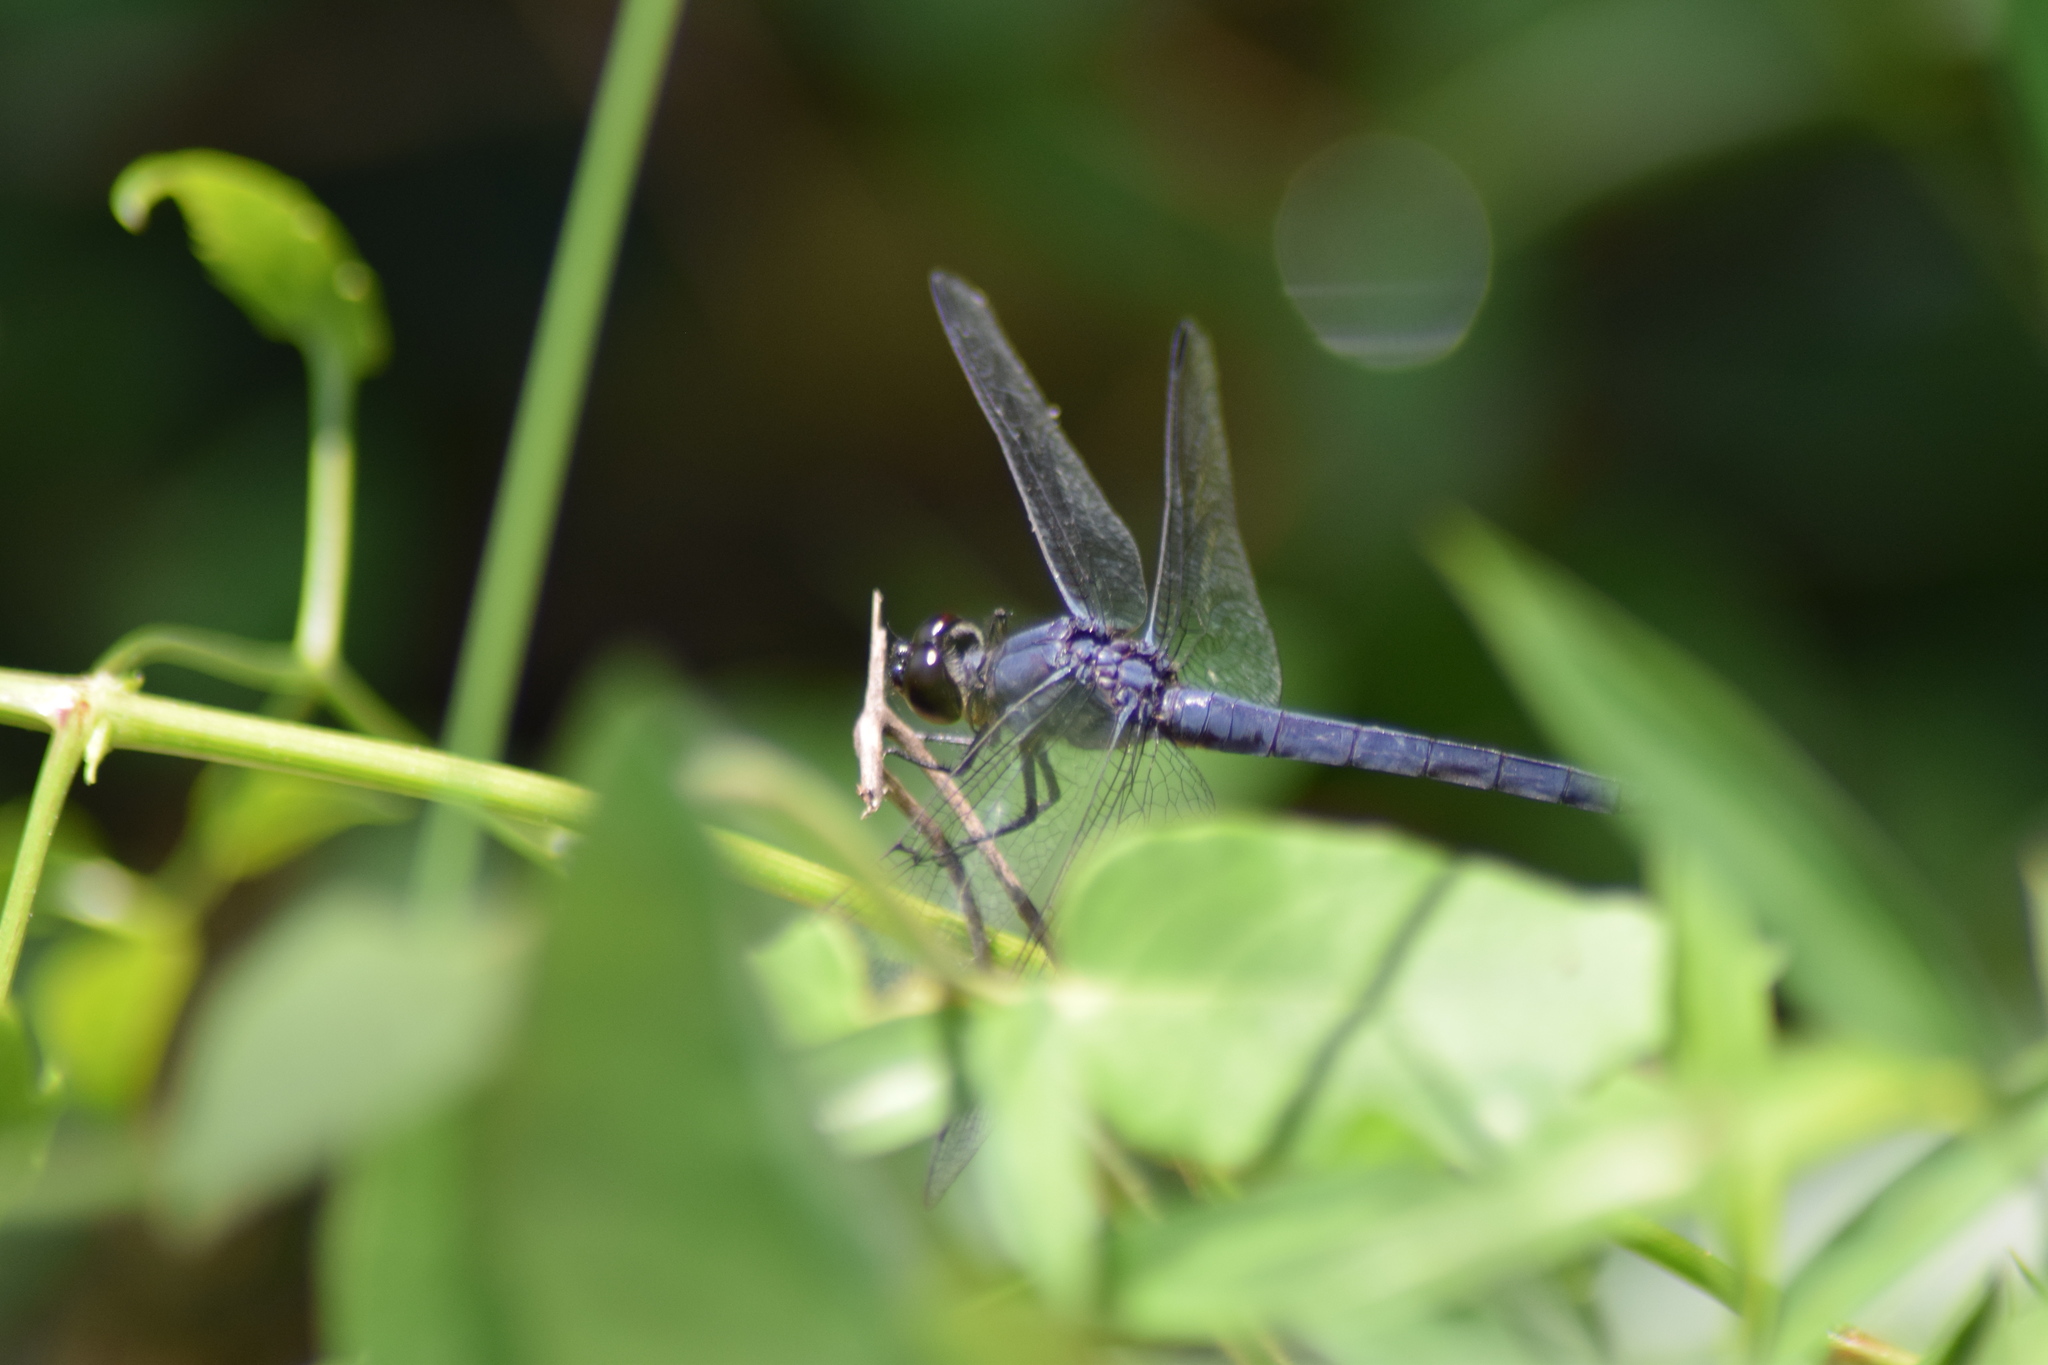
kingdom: Animalia
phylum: Arthropoda
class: Insecta
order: Odonata
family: Libellulidae
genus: Libellula
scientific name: Libellula incesta
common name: Slaty skimmer
